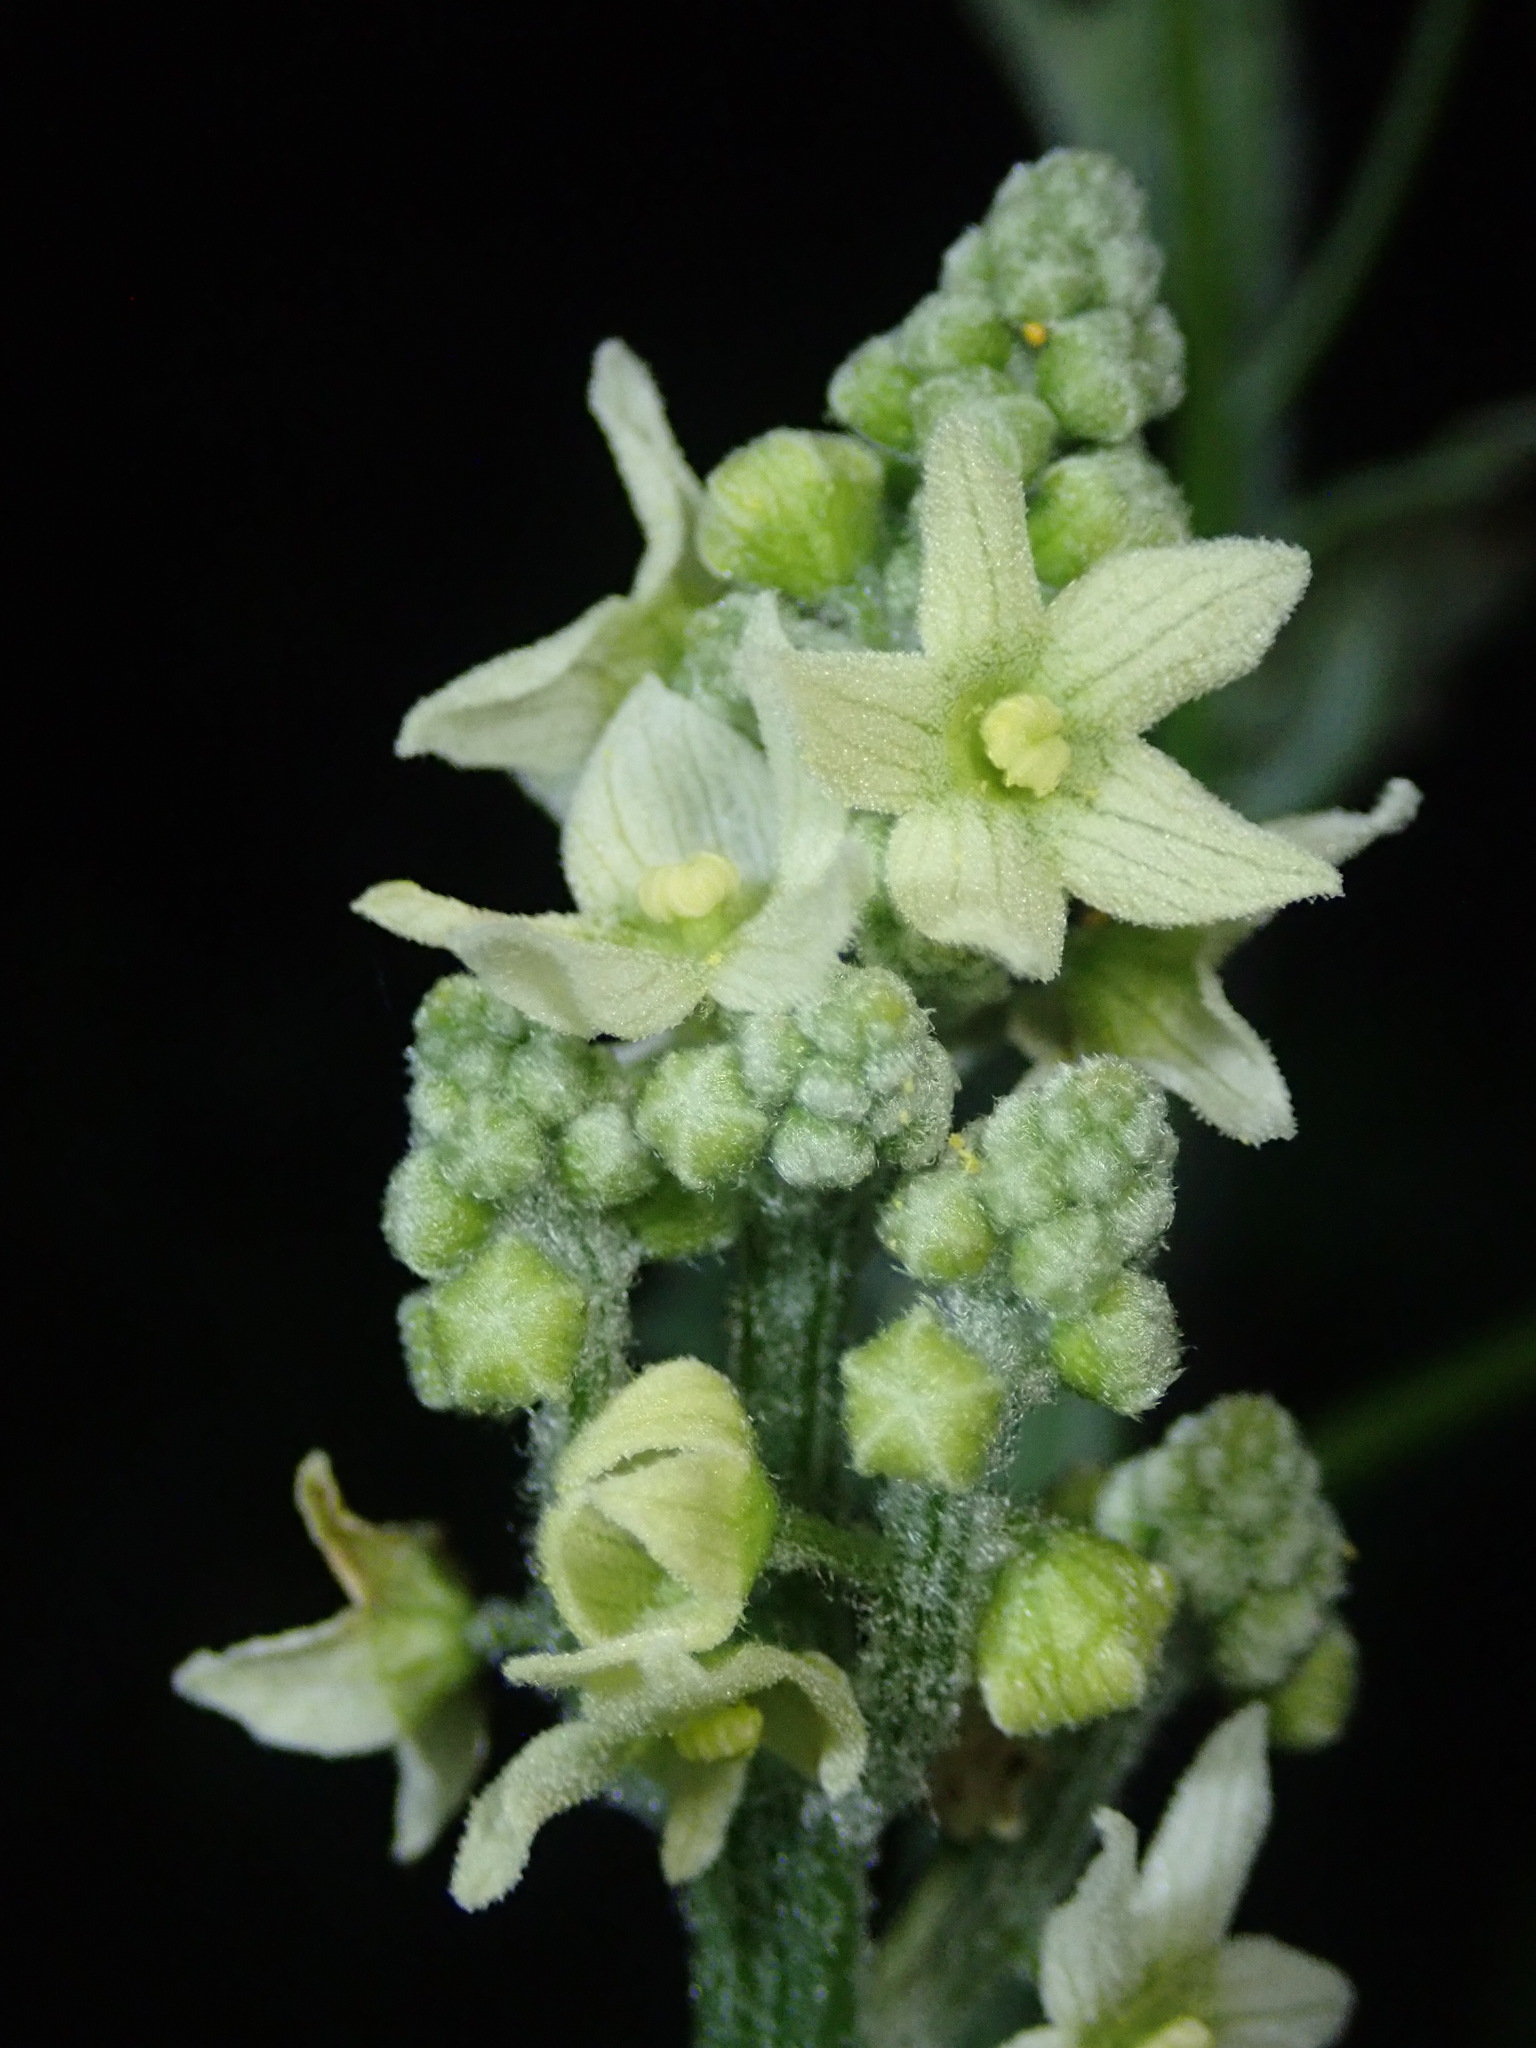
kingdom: Plantae
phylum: Tracheophyta
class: Magnoliopsida
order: Cucurbitales
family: Cucurbitaceae
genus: Marah
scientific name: Marah fabacea
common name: California manroot
